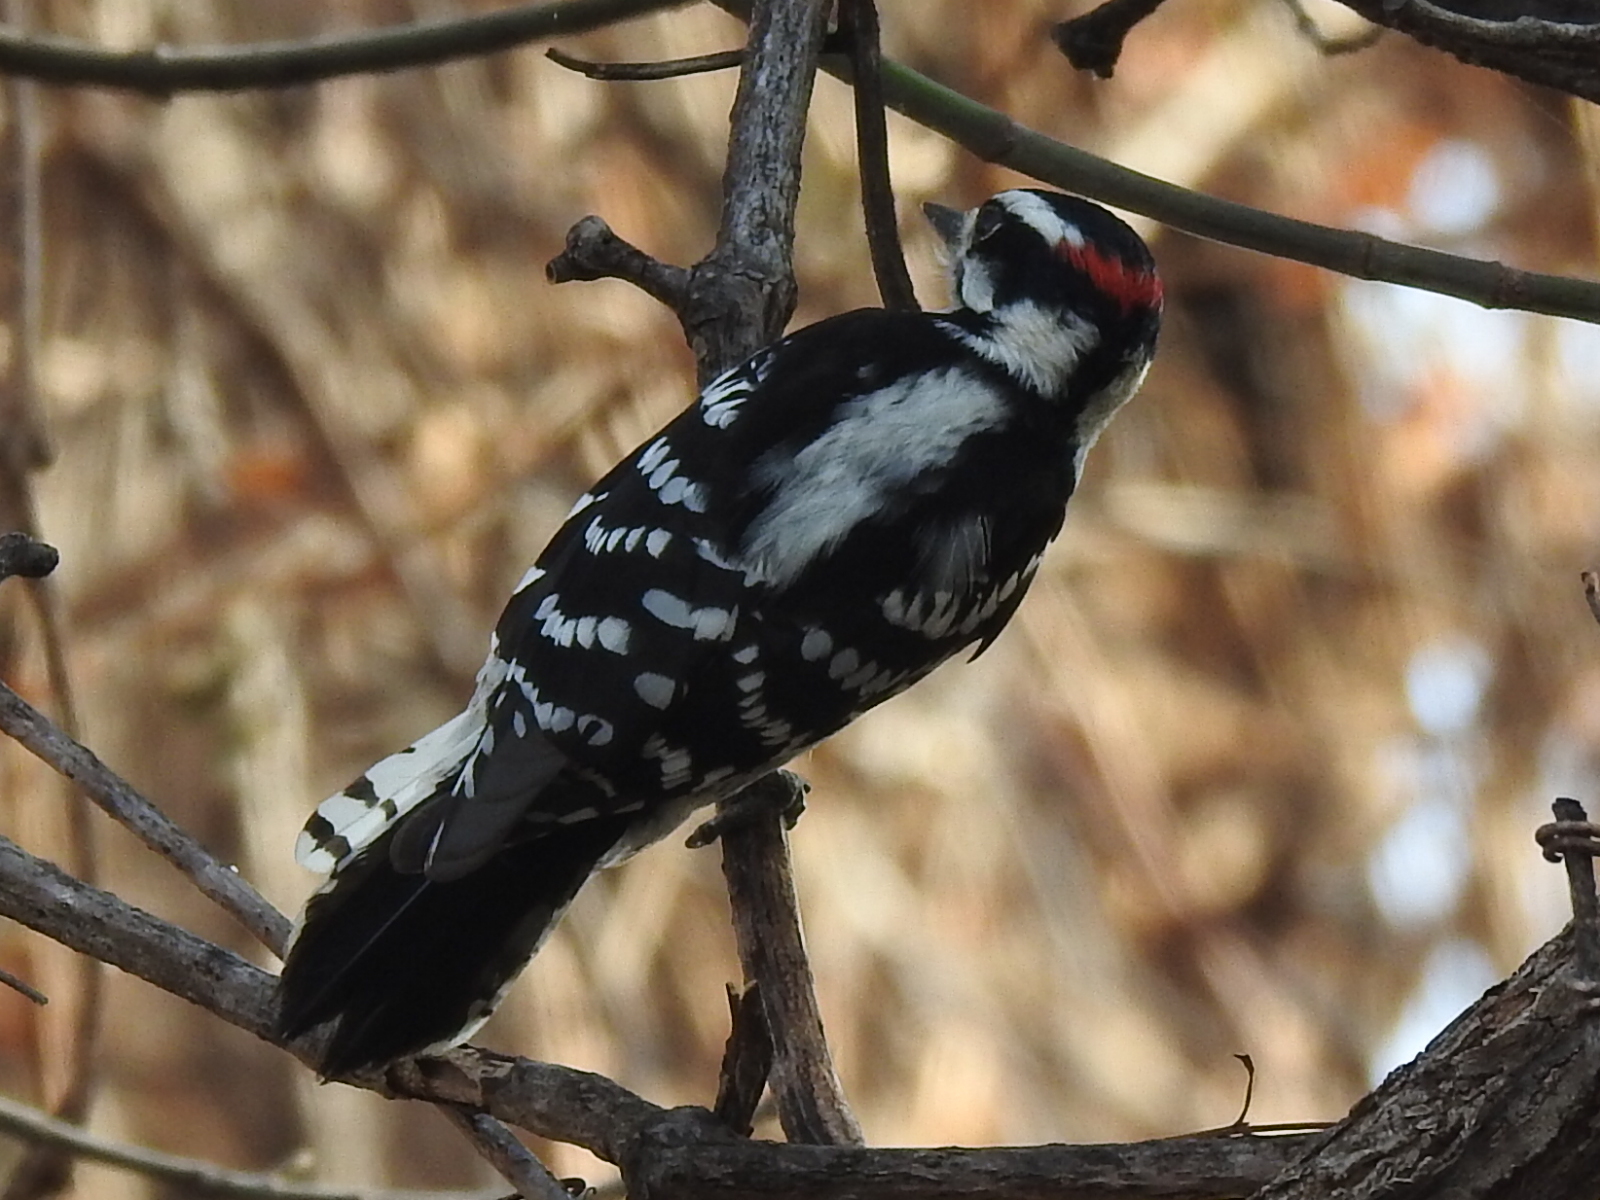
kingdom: Animalia
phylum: Chordata
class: Aves
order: Piciformes
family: Picidae
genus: Dryobates
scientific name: Dryobates pubescens
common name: Downy woodpecker
